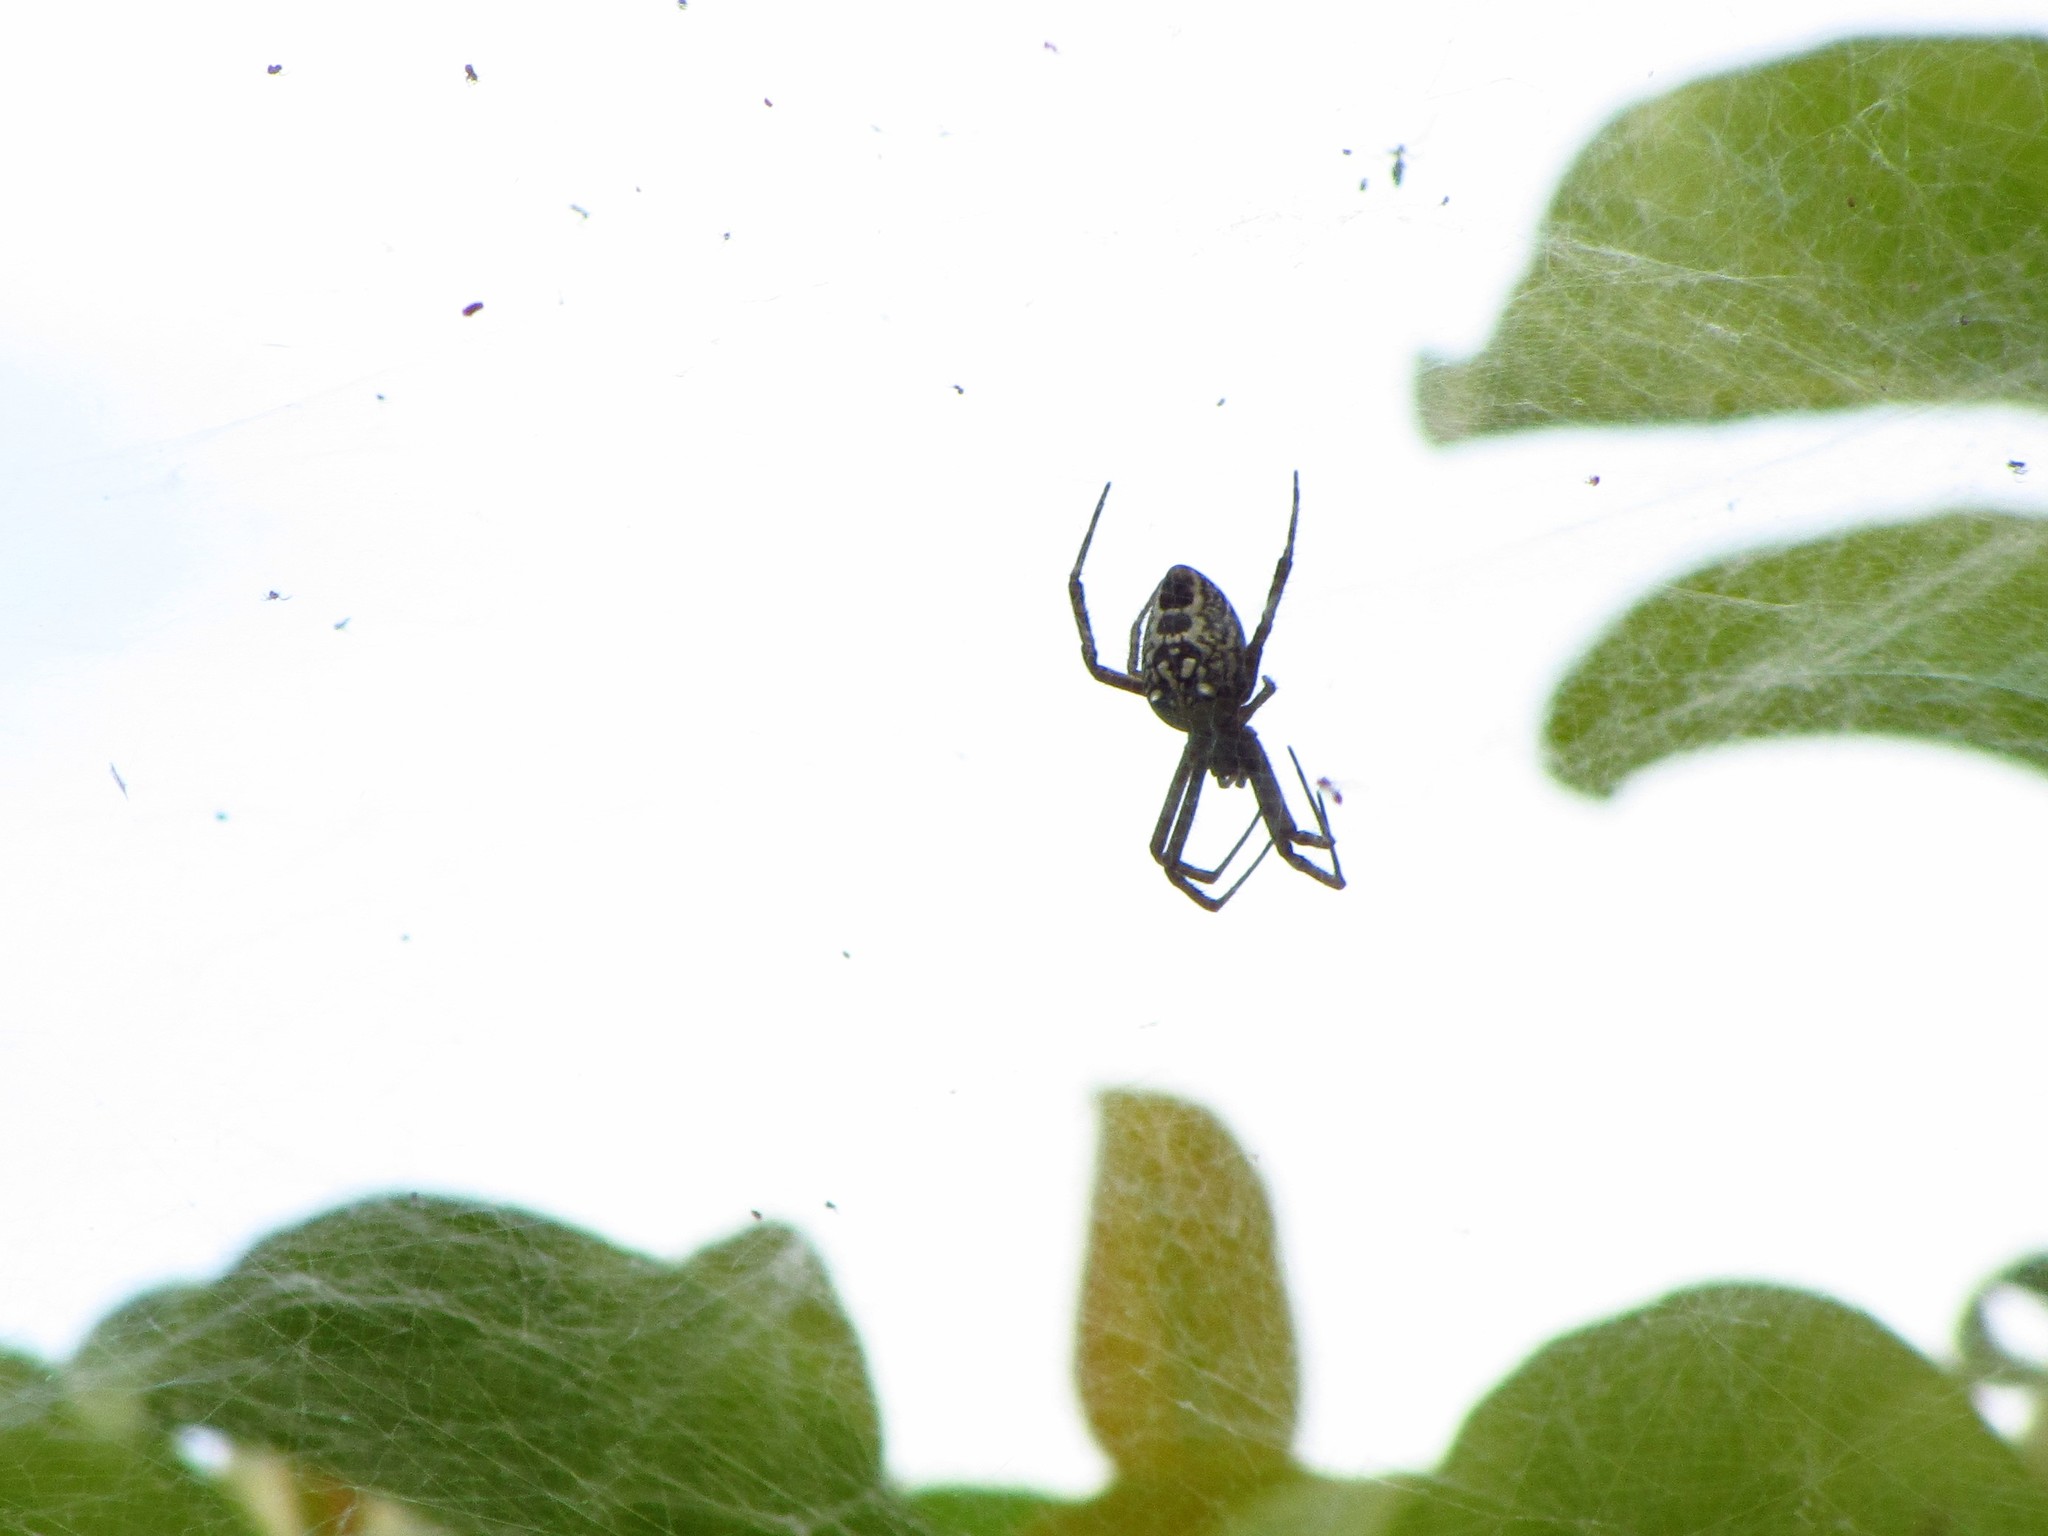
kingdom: Chromista
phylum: Ochrophyta
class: Dictyochophyceae
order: Pedinellales
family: Cyrtophoraceae
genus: Cyrtophora
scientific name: Cyrtophora moluccensis
